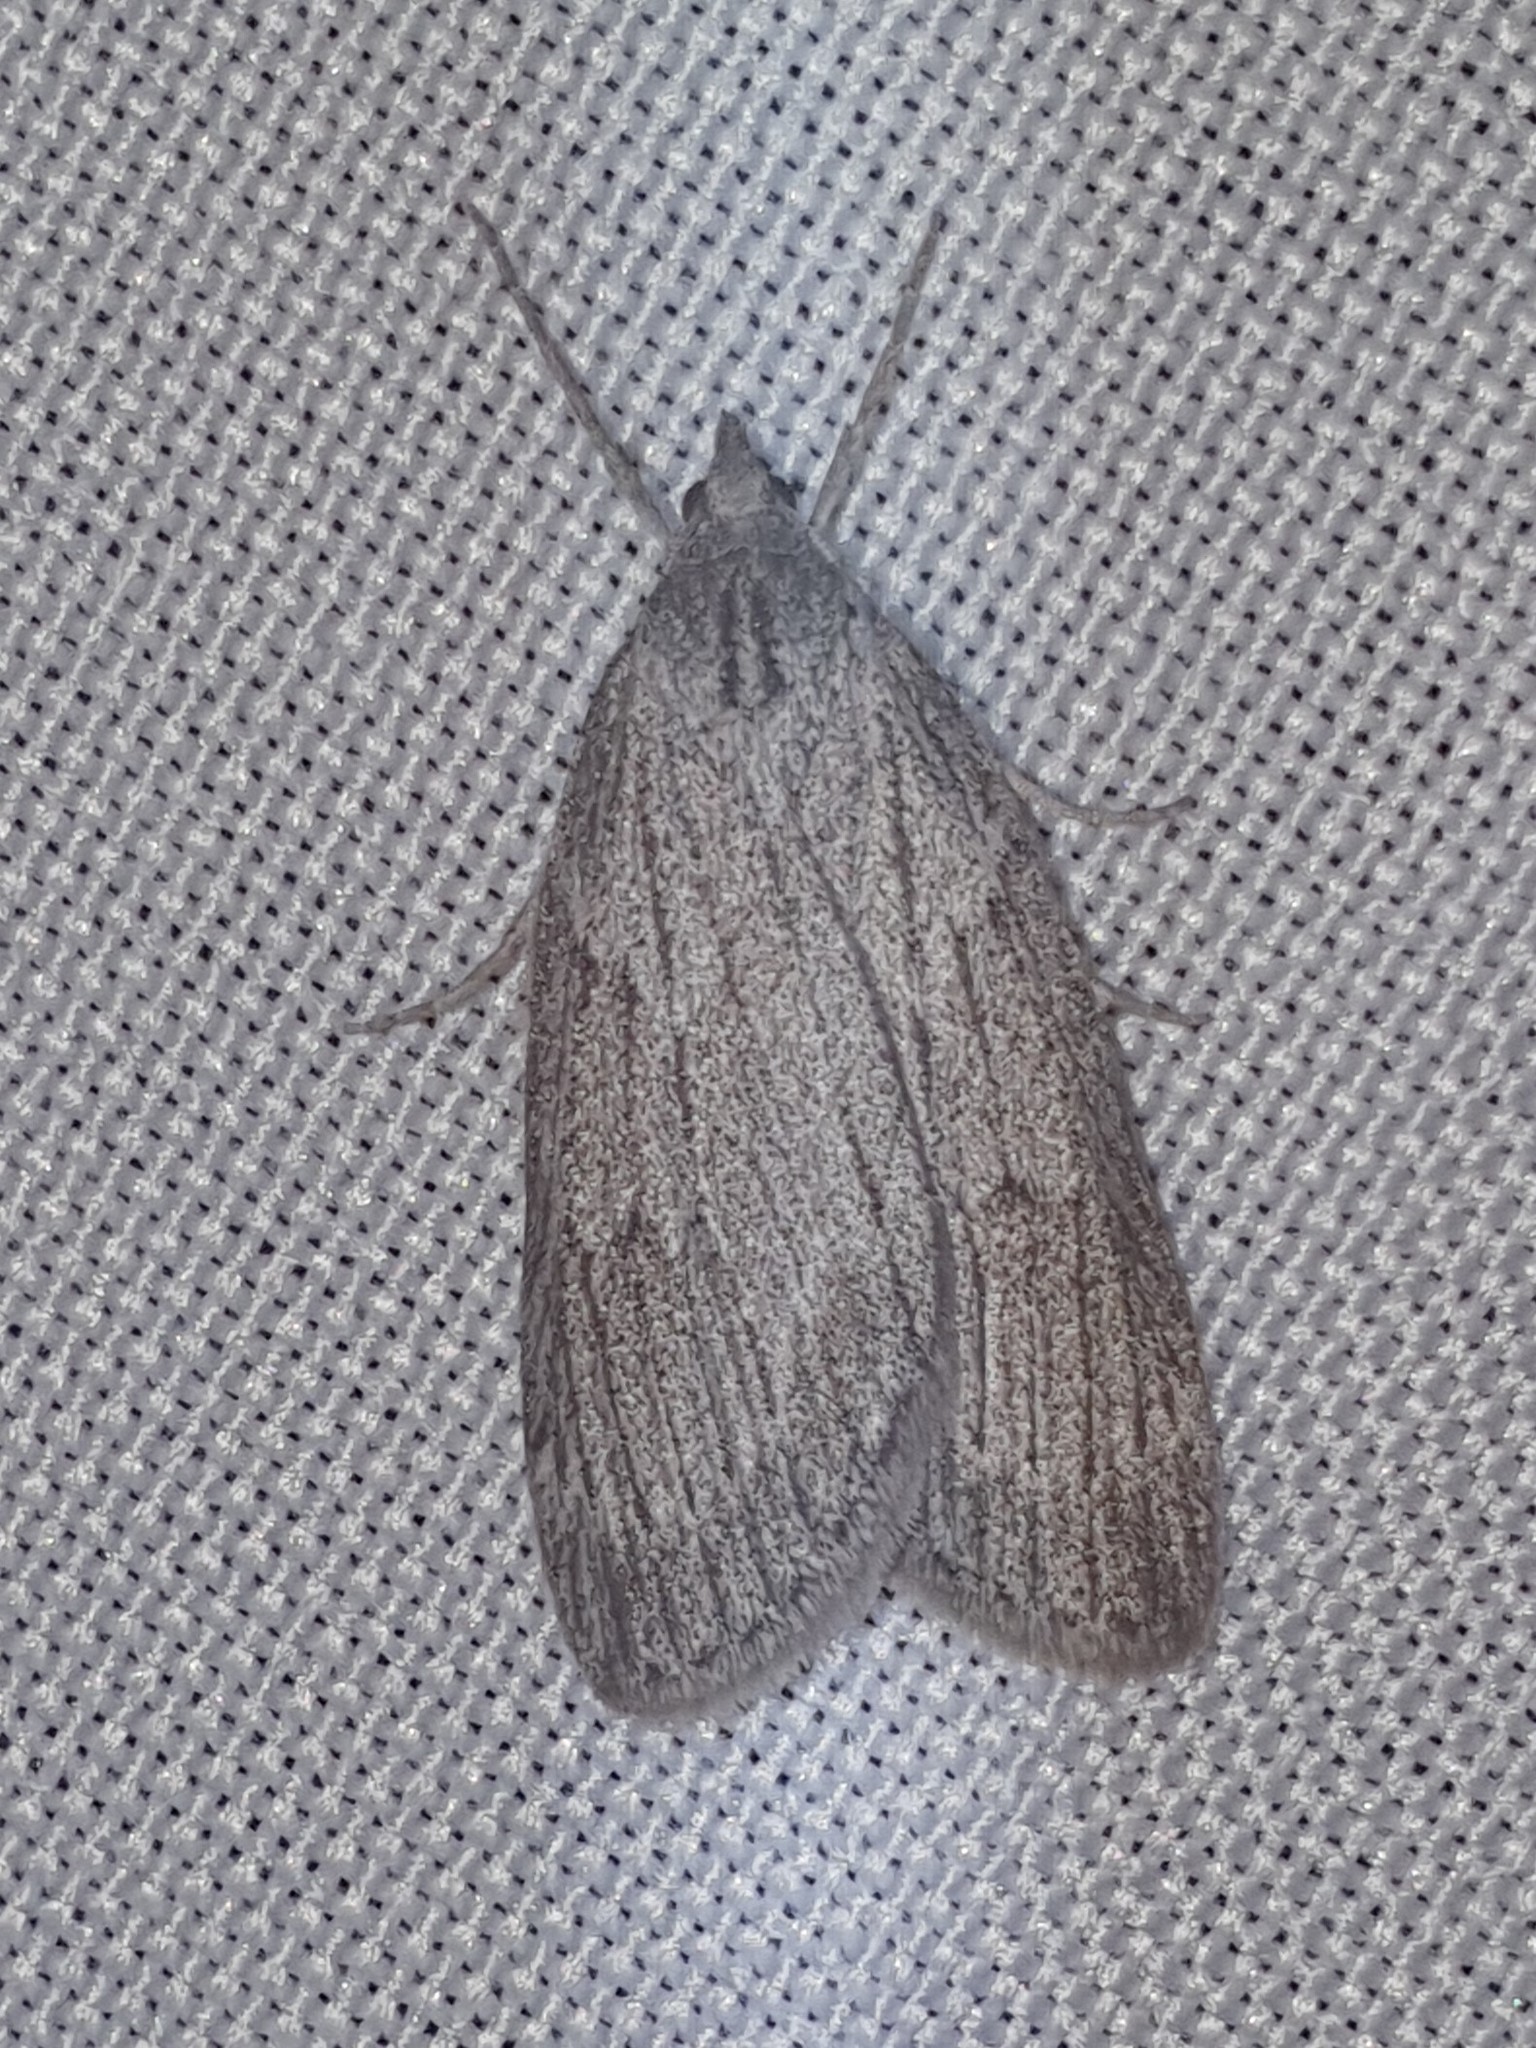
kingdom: Animalia
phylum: Arthropoda
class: Insecta
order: Lepidoptera
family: Geometridae
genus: Pachycnemia
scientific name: Pachycnemia hippocastanaria
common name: Horse chestnut
